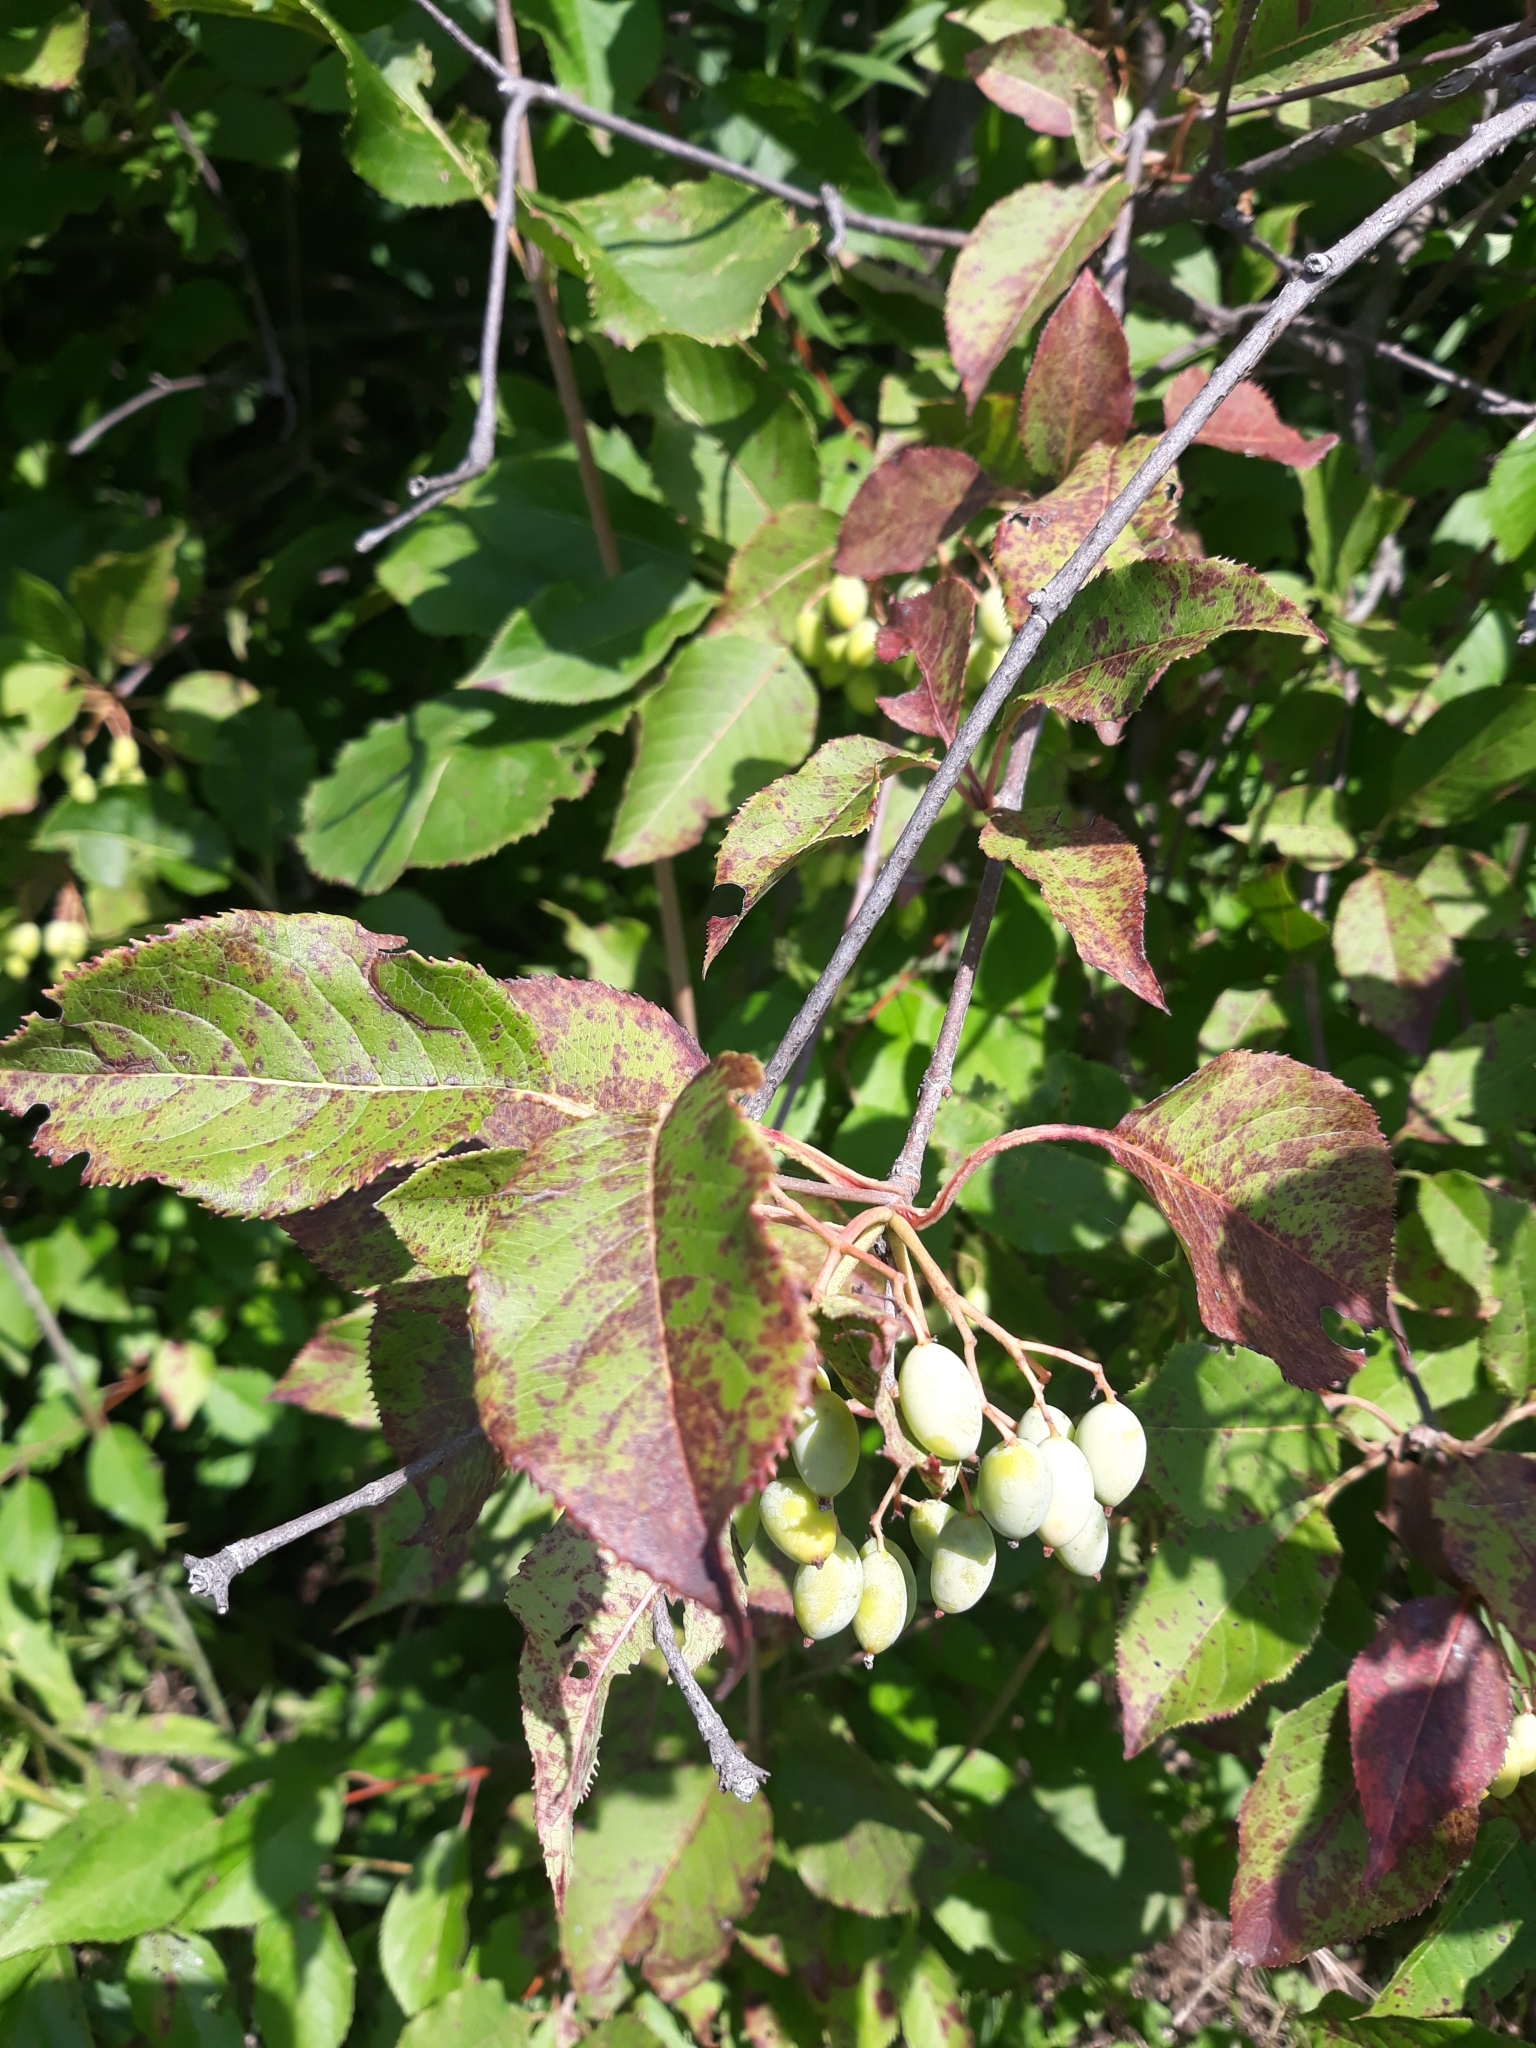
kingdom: Plantae
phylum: Tracheophyta
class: Magnoliopsida
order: Dipsacales
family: Viburnaceae
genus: Viburnum
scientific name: Viburnum lentago
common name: Black haw
